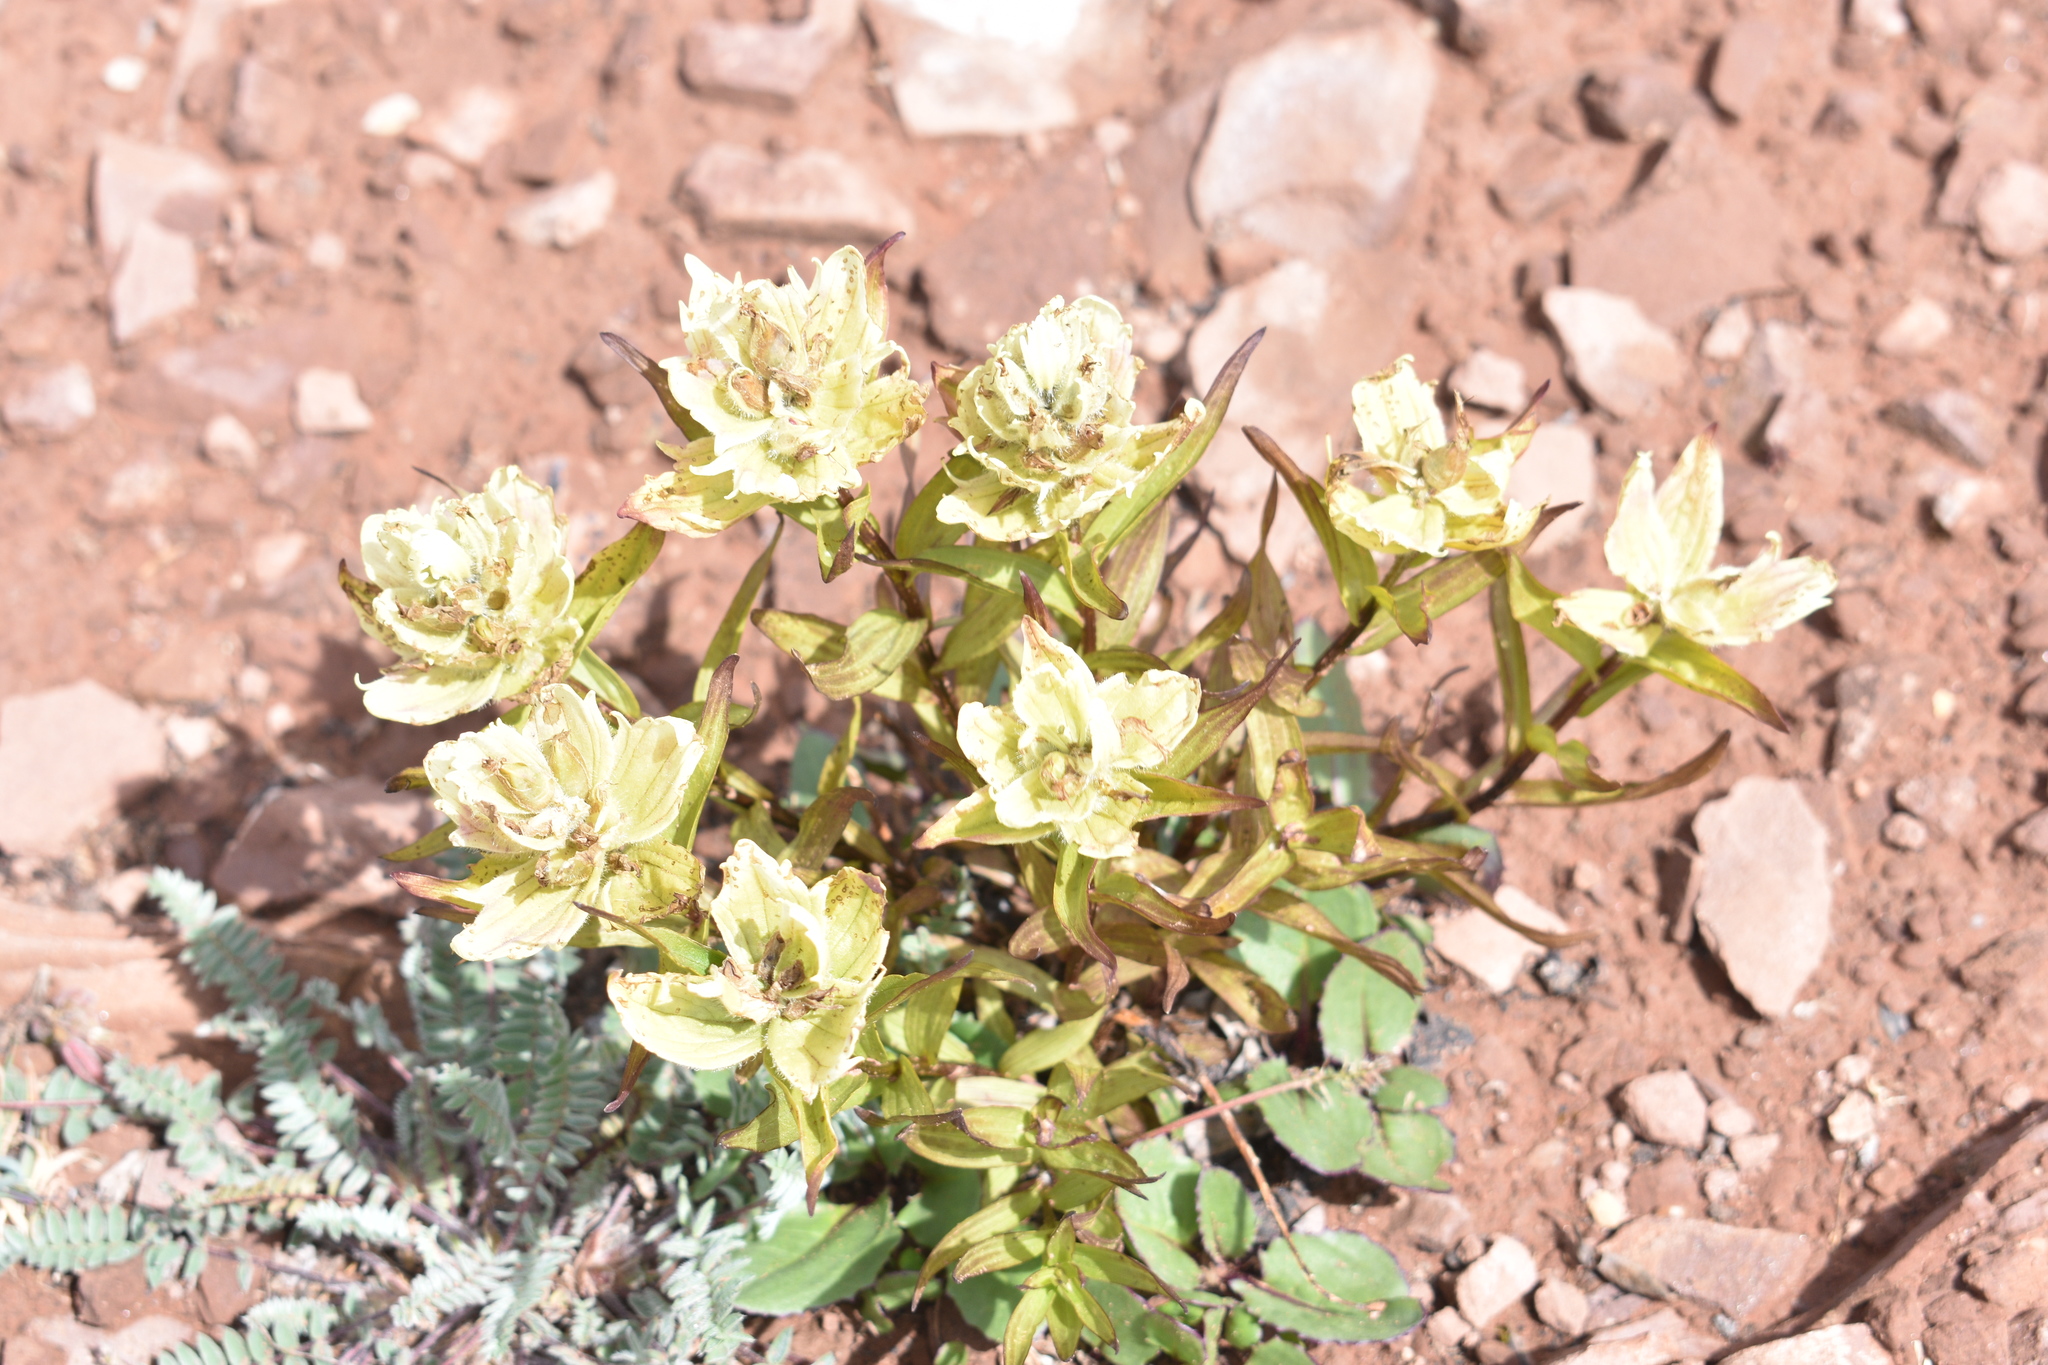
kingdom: Plantae
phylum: Tracheophyta
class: Magnoliopsida
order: Lamiales
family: Orobanchaceae
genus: Castilleja
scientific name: Castilleja occidentalis
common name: Western paintbrush
